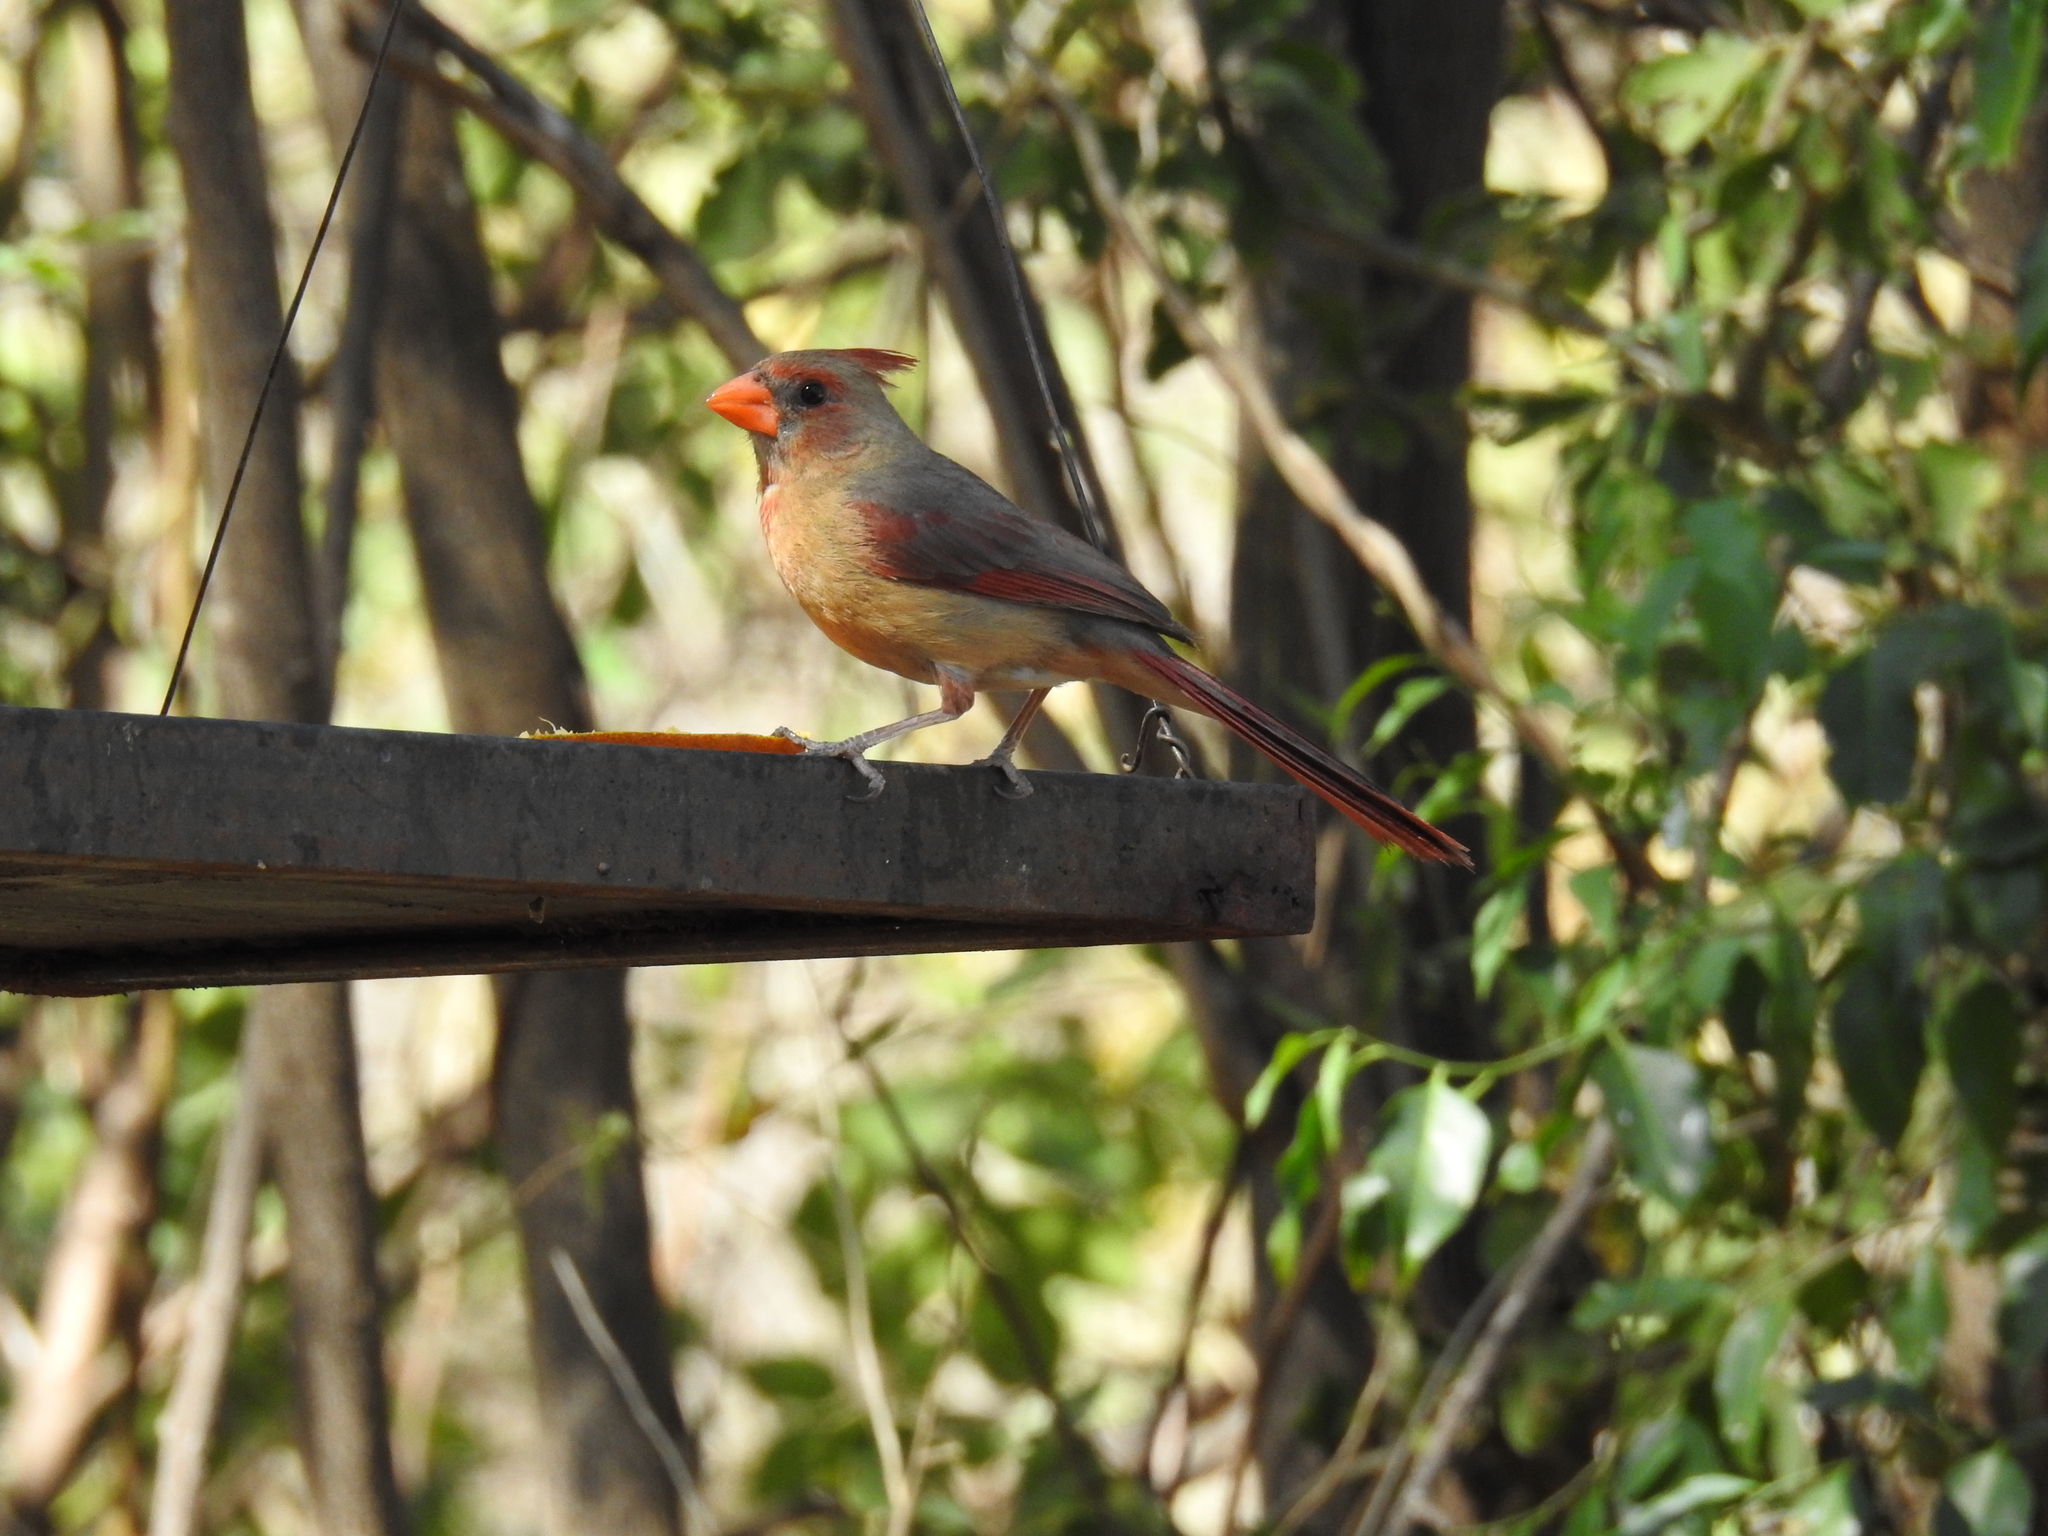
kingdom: Animalia
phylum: Chordata
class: Aves
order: Passeriformes
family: Cardinalidae
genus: Cardinalis
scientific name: Cardinalis cardinalis
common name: Northern cardinal
